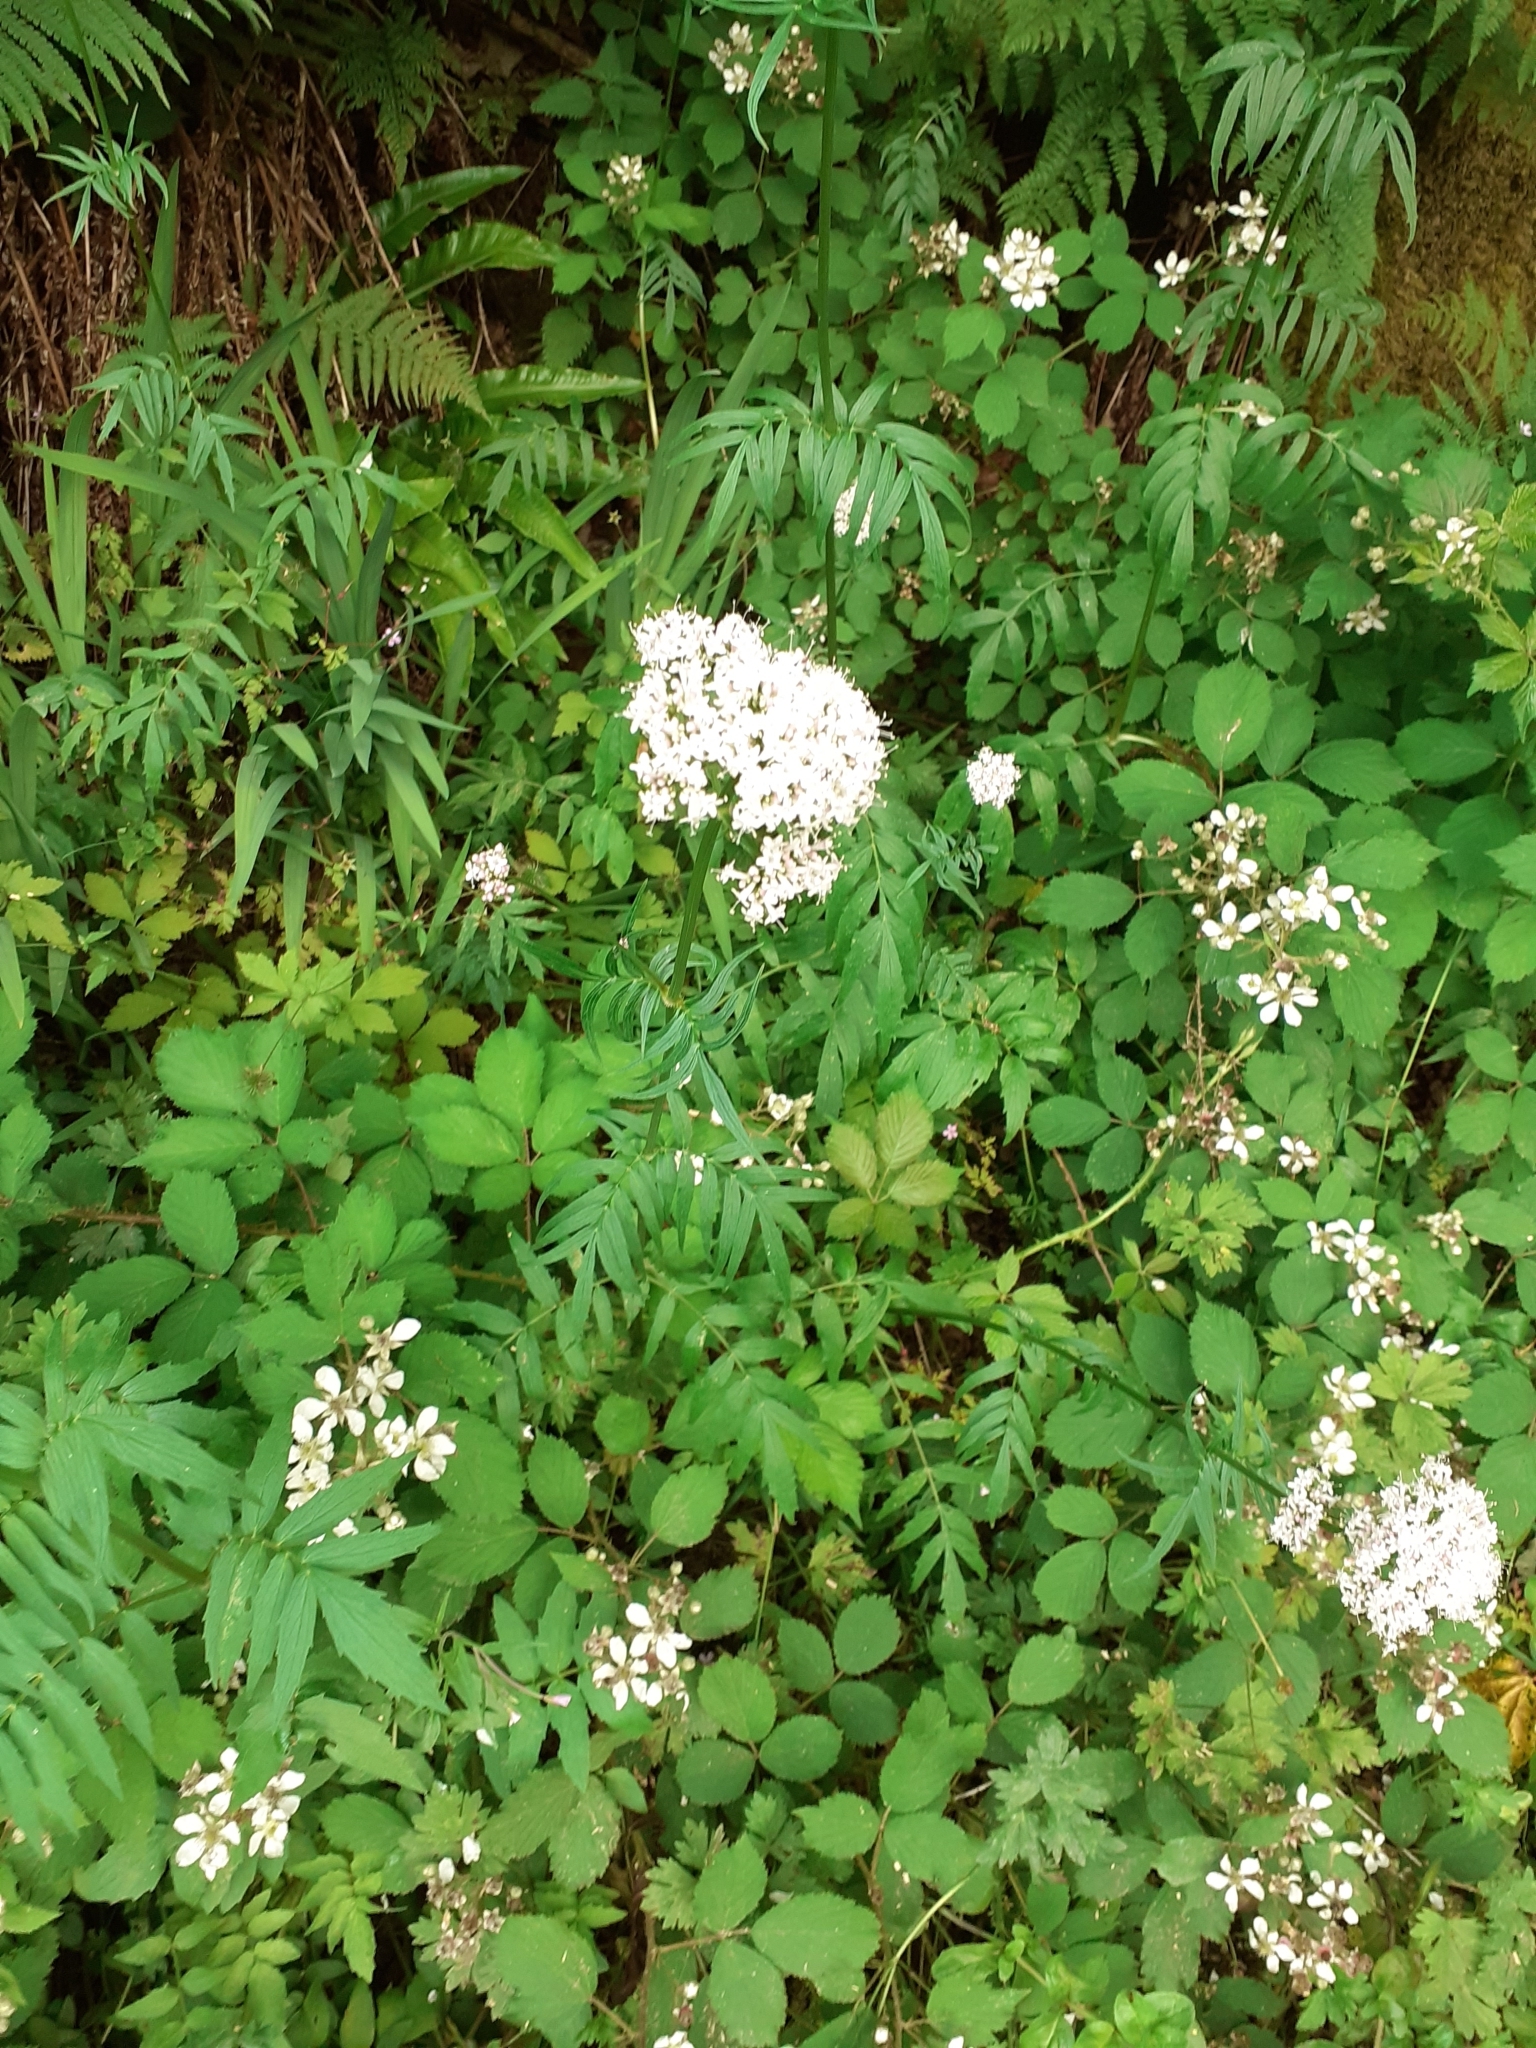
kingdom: Plantae
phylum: Tracheophyta
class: Magnoliopsida
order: Dipsacales
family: Caprifoliaceae
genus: Valeriana
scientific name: Valeriana officinalis
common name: Common valerian
